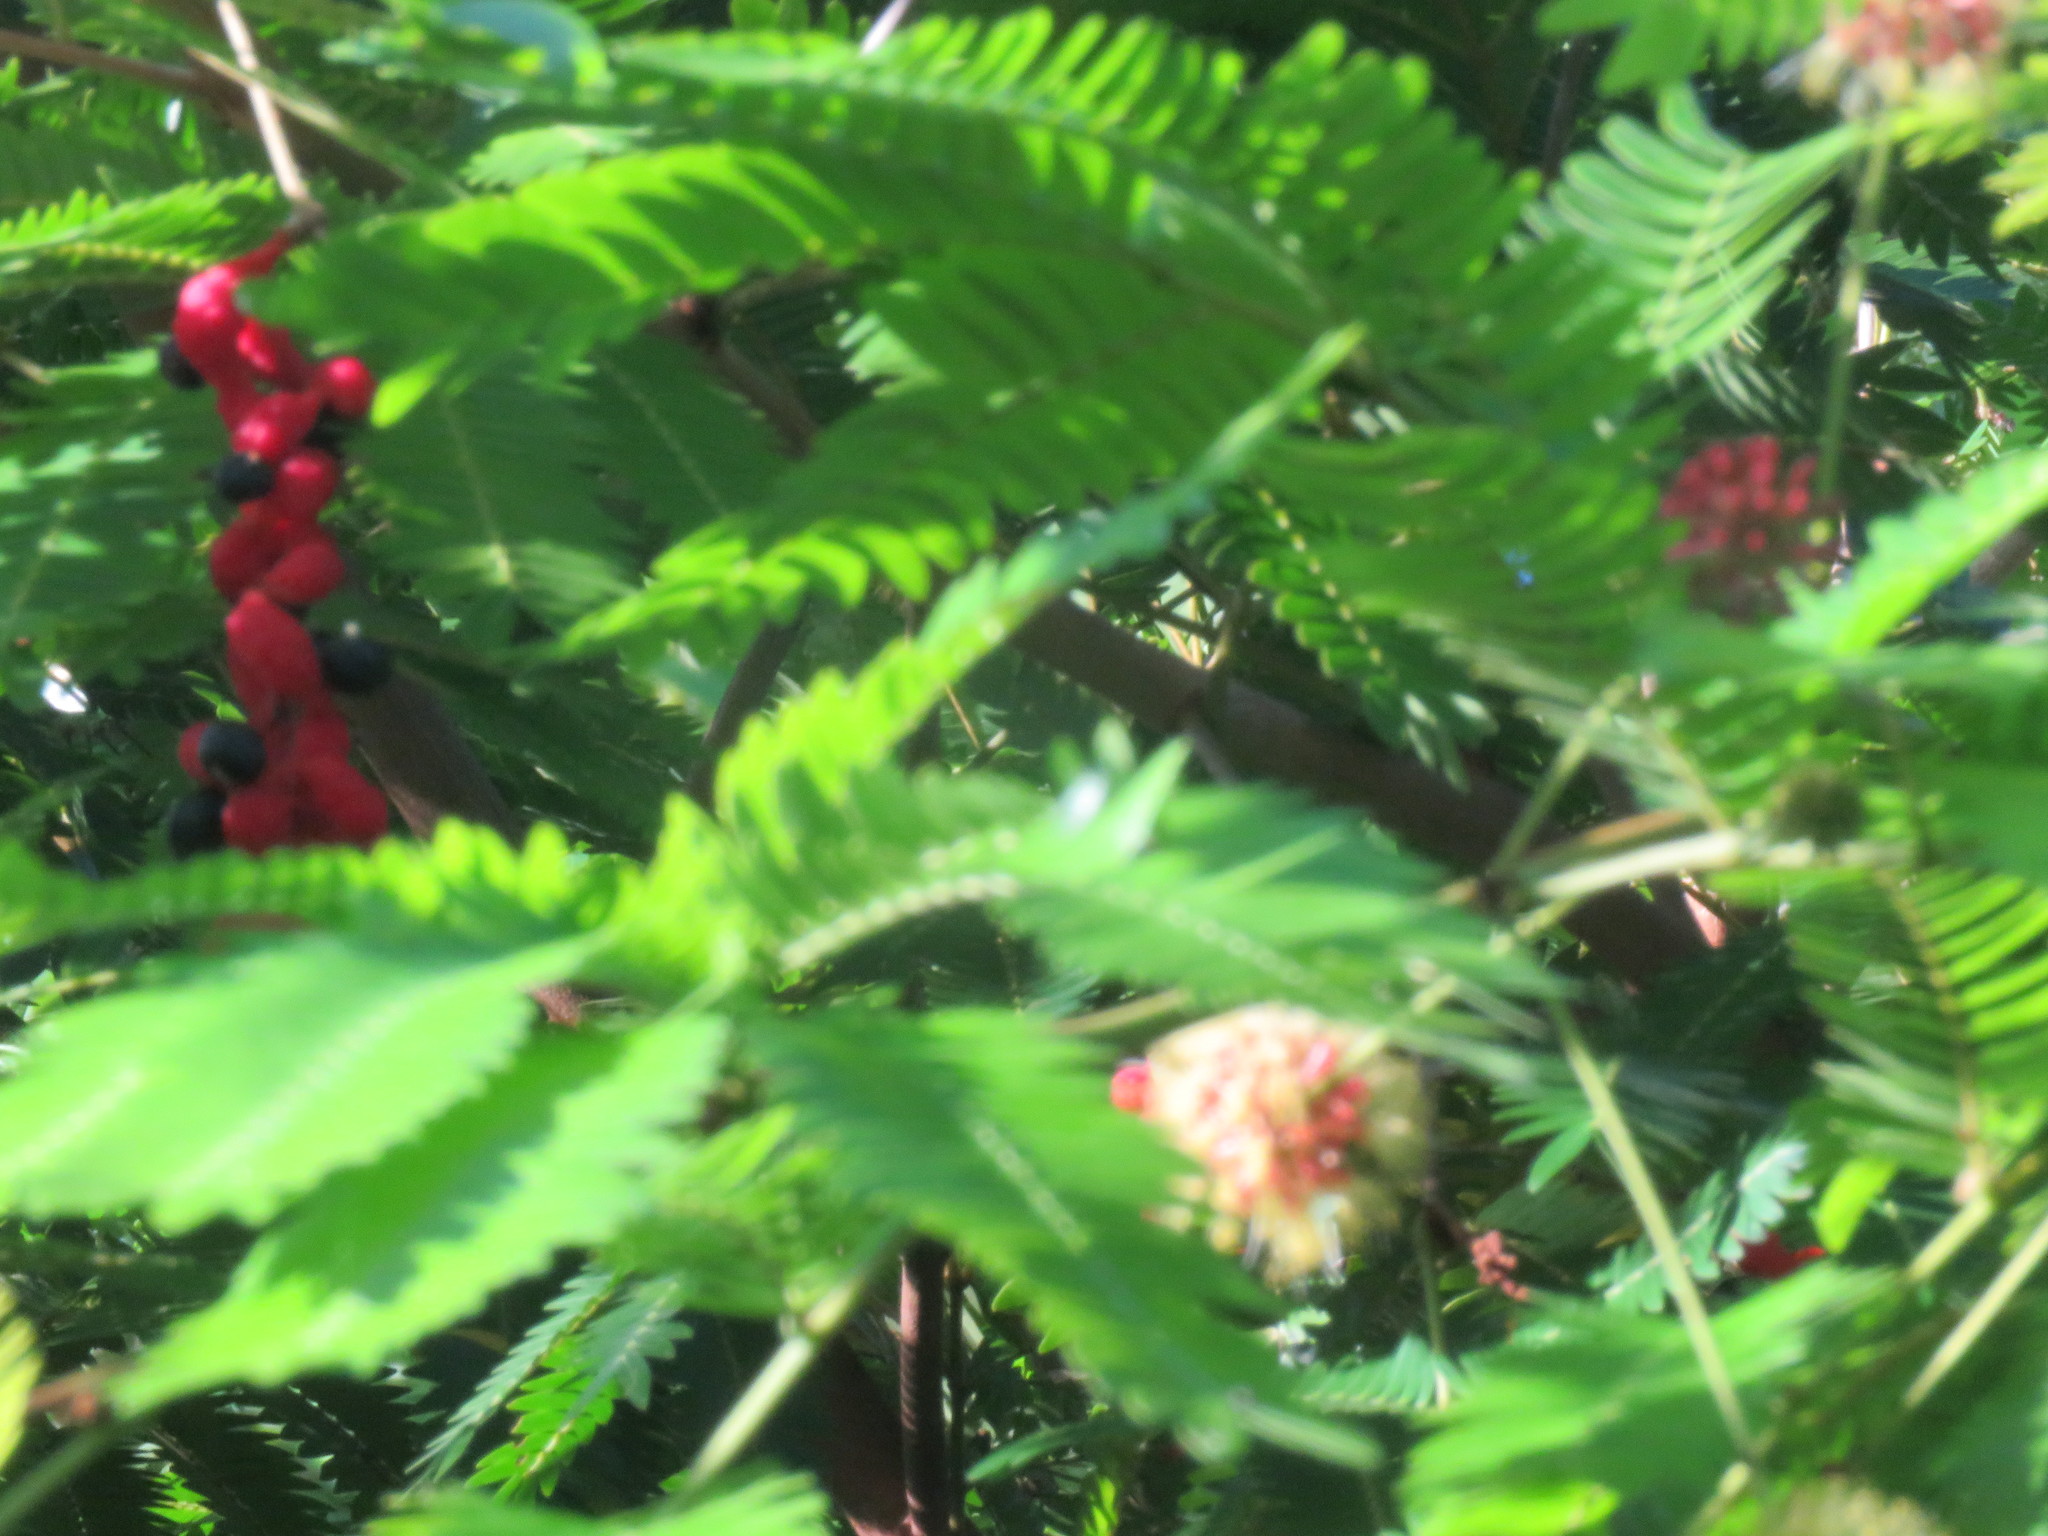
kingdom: Plantae
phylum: Tracheophyta
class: Magnoliopsida
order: Fabales
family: Fabaceae
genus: Cojoba
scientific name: Cojoba arborea
